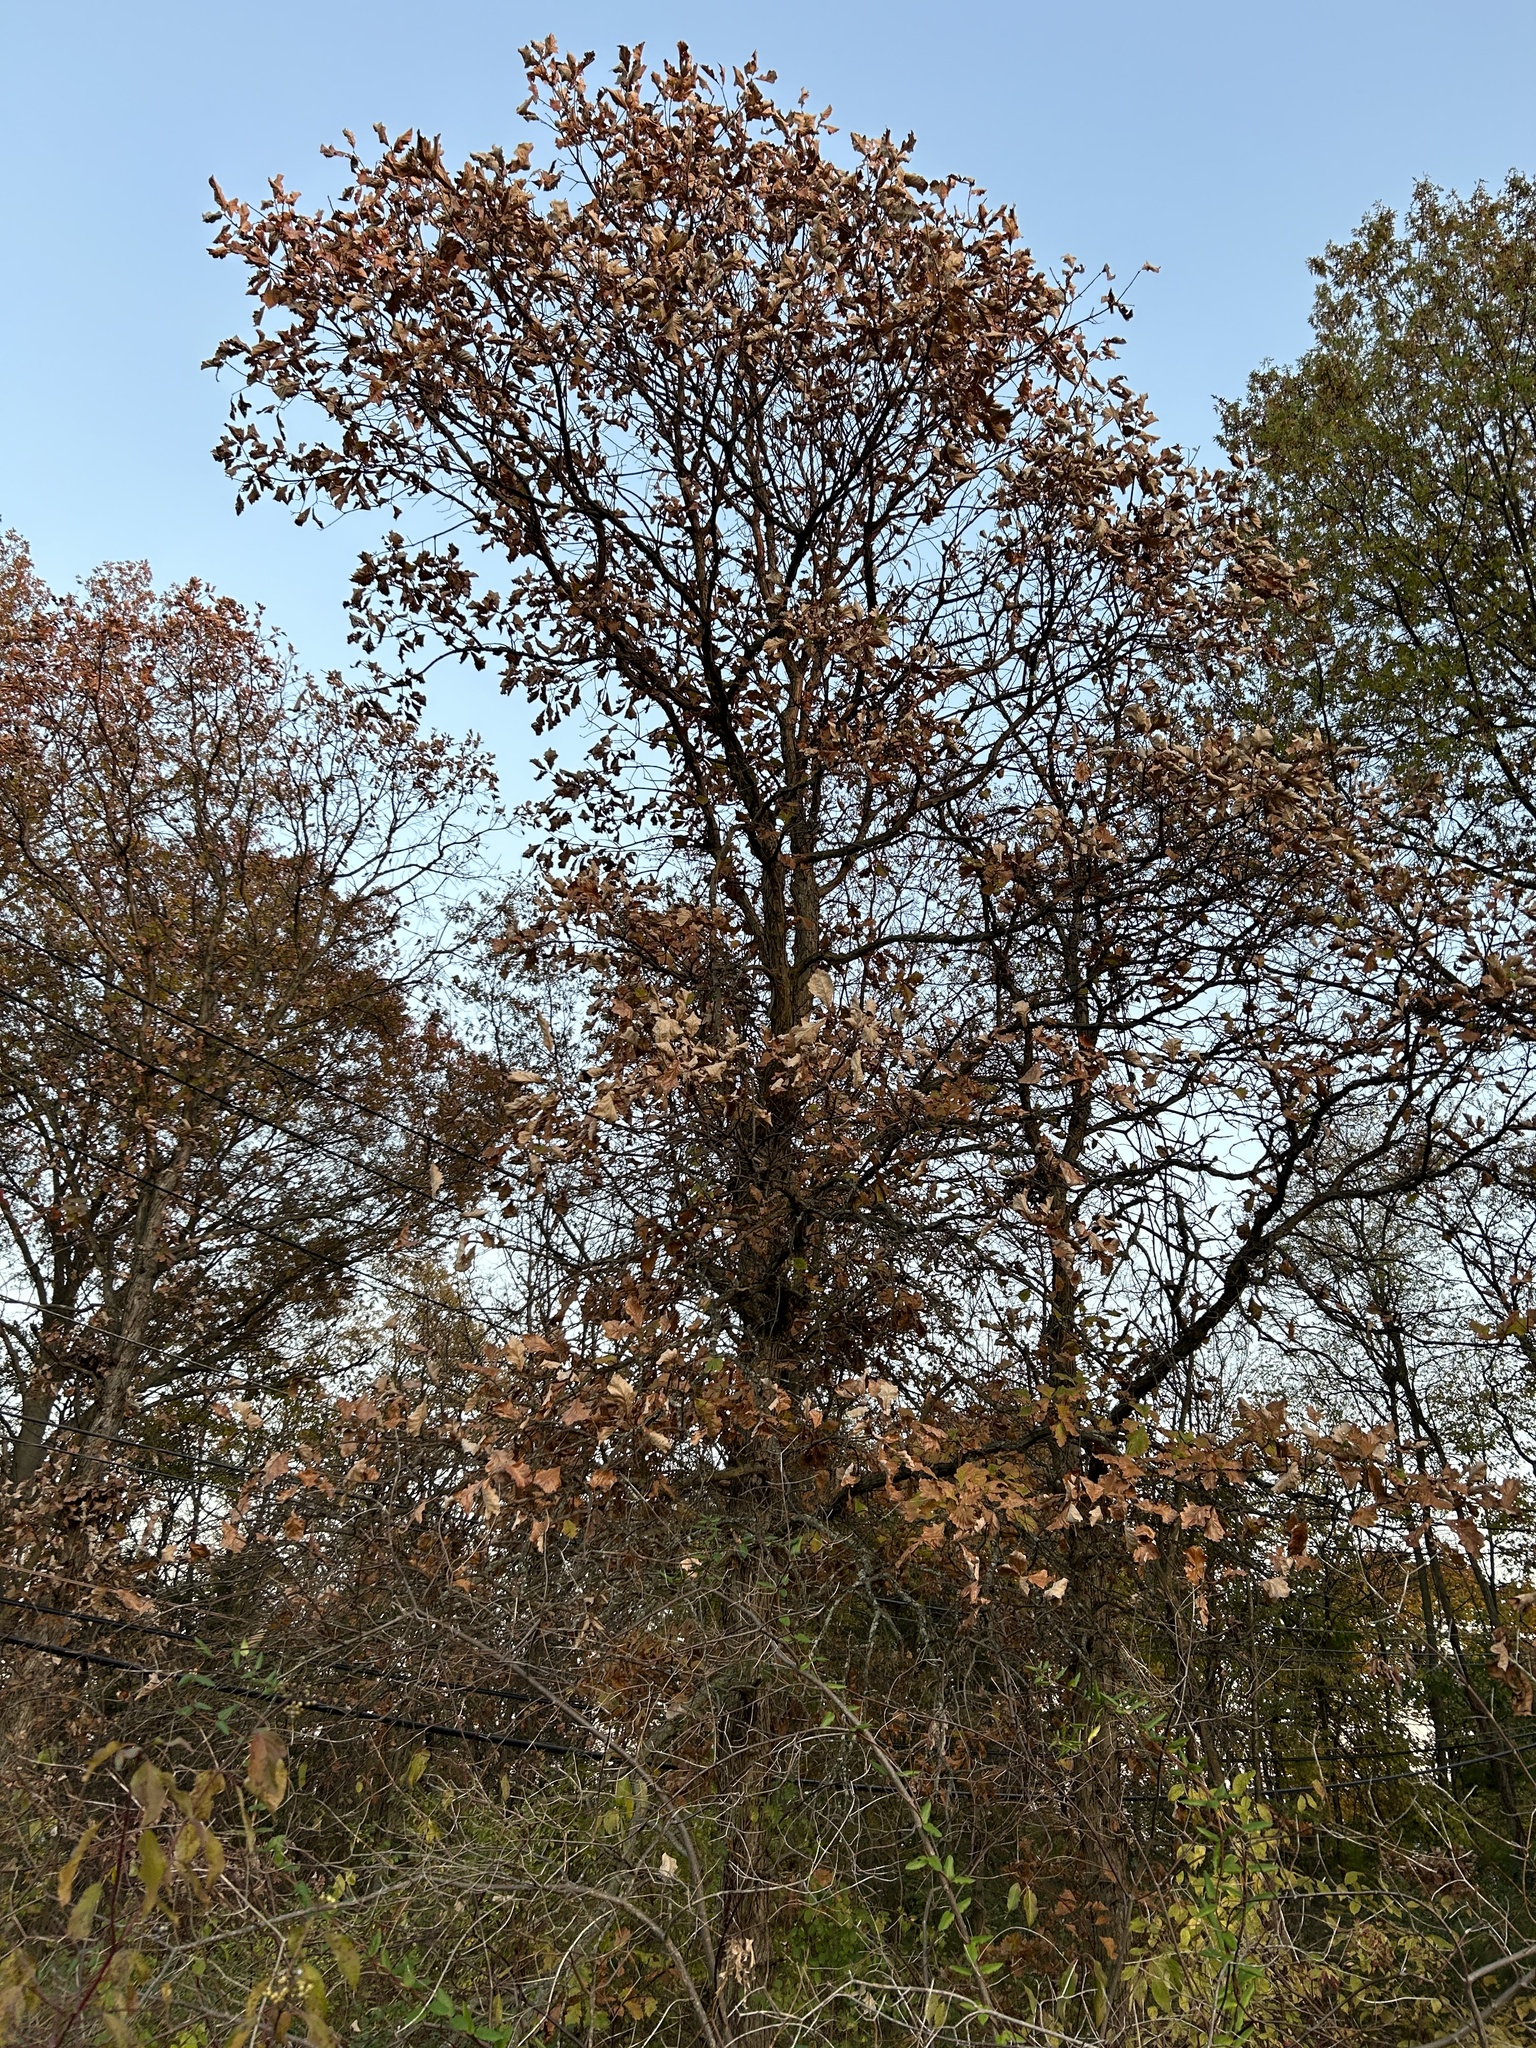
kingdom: Plantae
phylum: Tracheophyta
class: Magnoliopsida
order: Fagales
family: Fagaceae
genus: Quercus
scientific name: Quercus bicolor
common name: Swamp white oak
